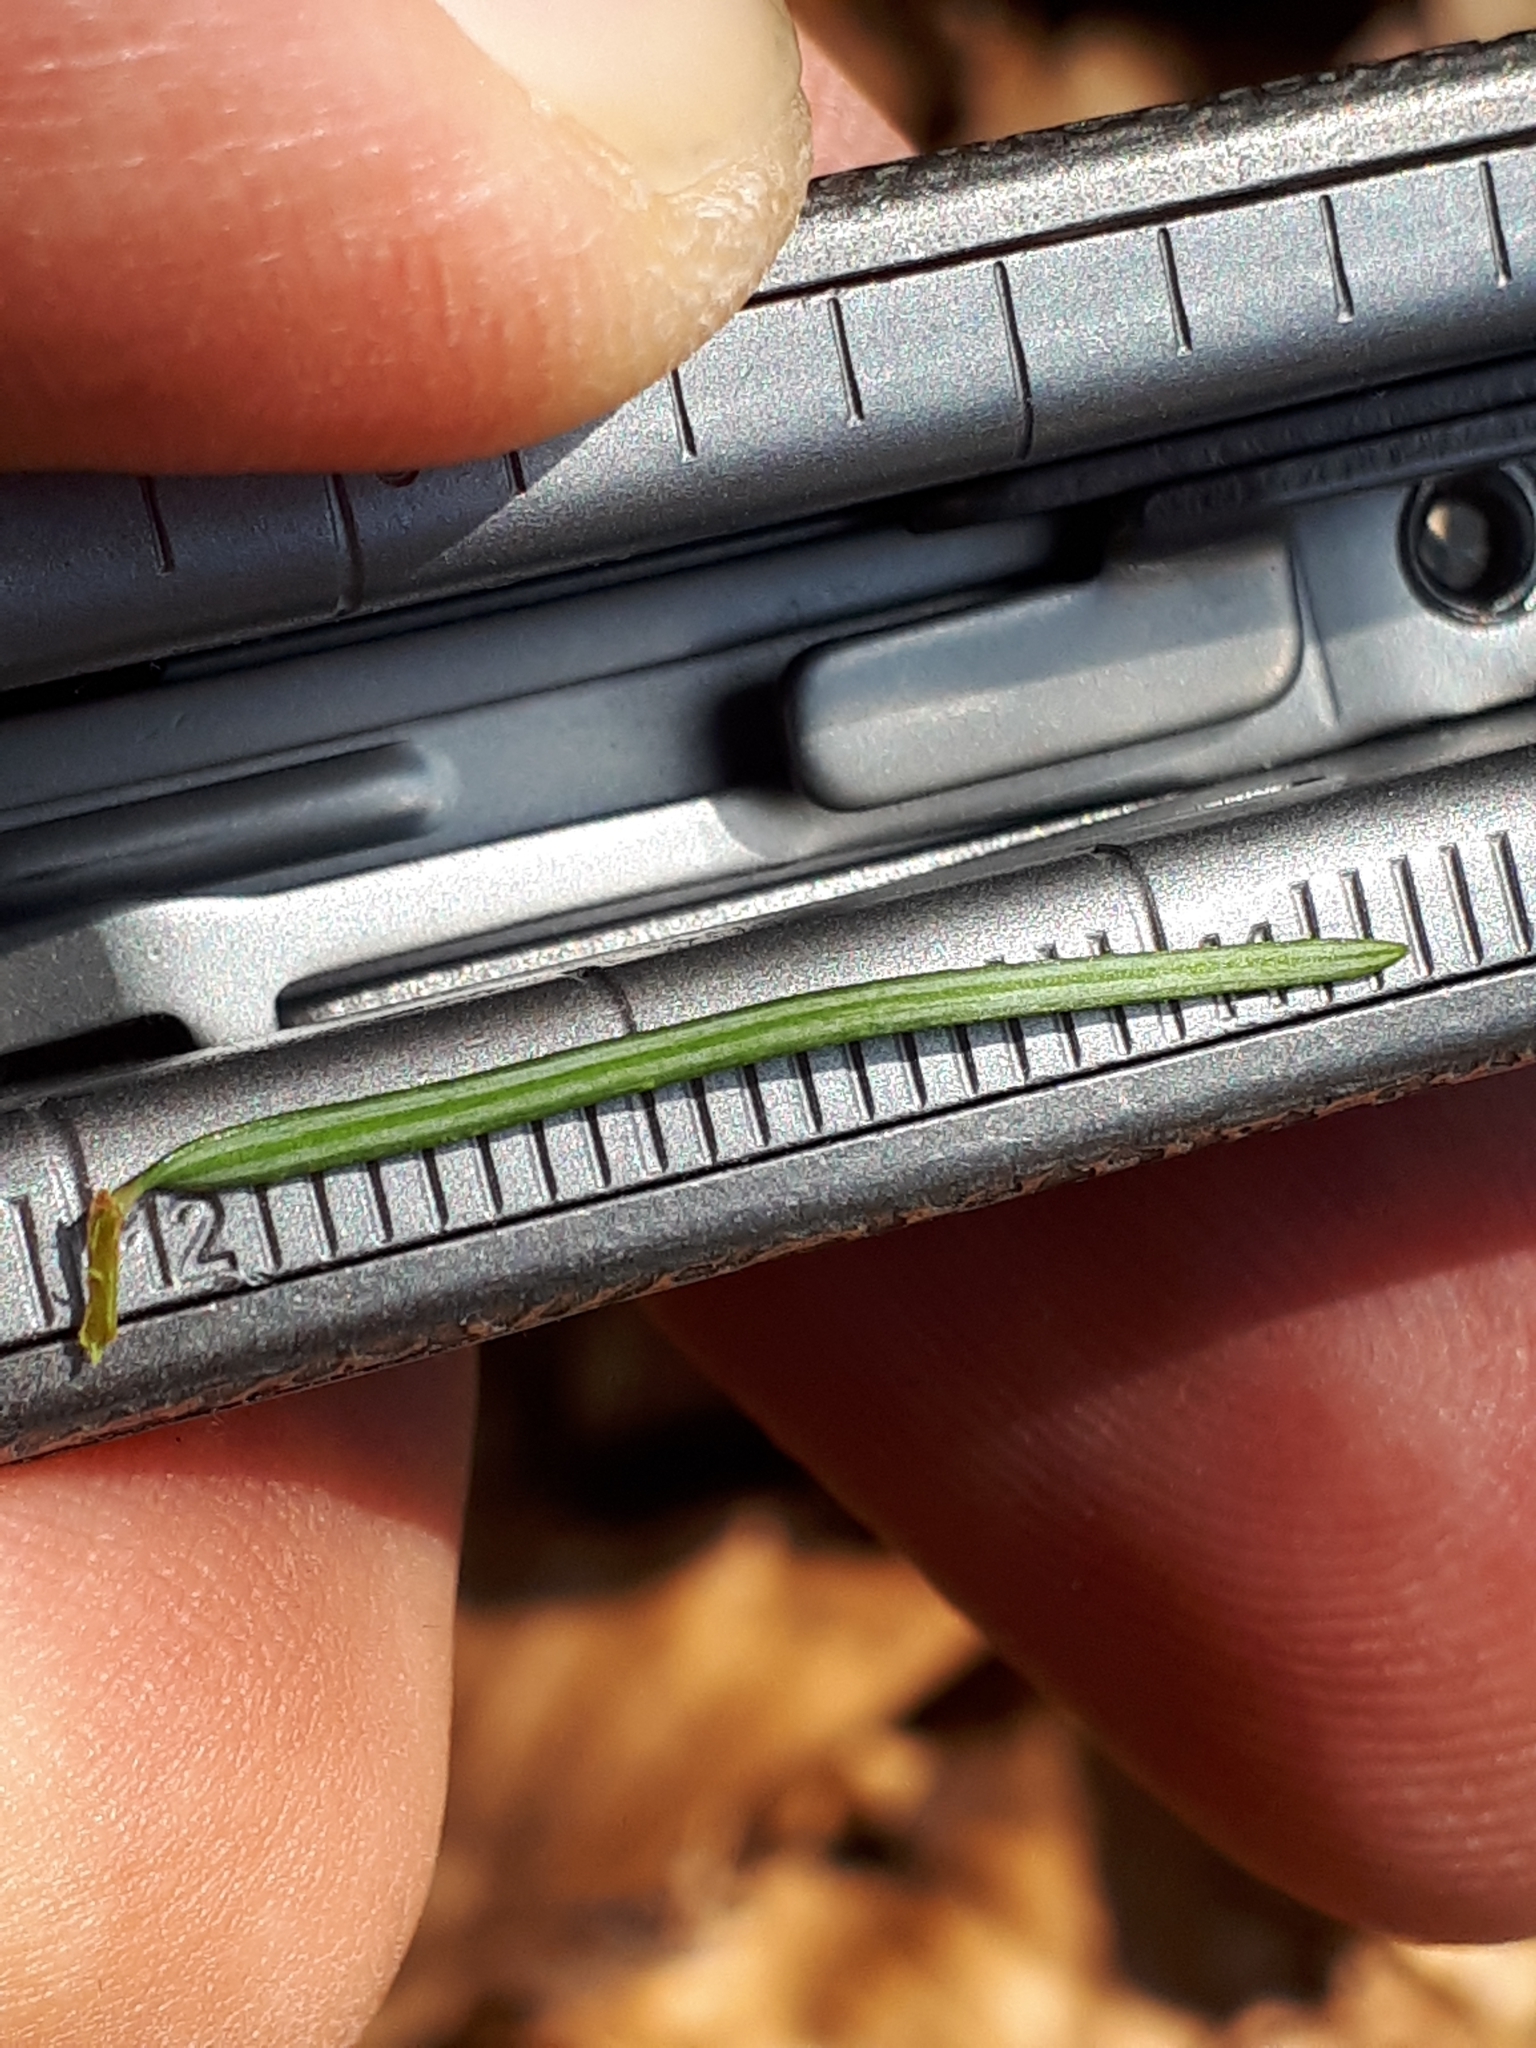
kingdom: Plantae
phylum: Tracheophyta
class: Pinopsida
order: Pinales
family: Pinaceae
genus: Pseudotsuga
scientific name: Pseudotsuga menziesii
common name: Douglas fir
